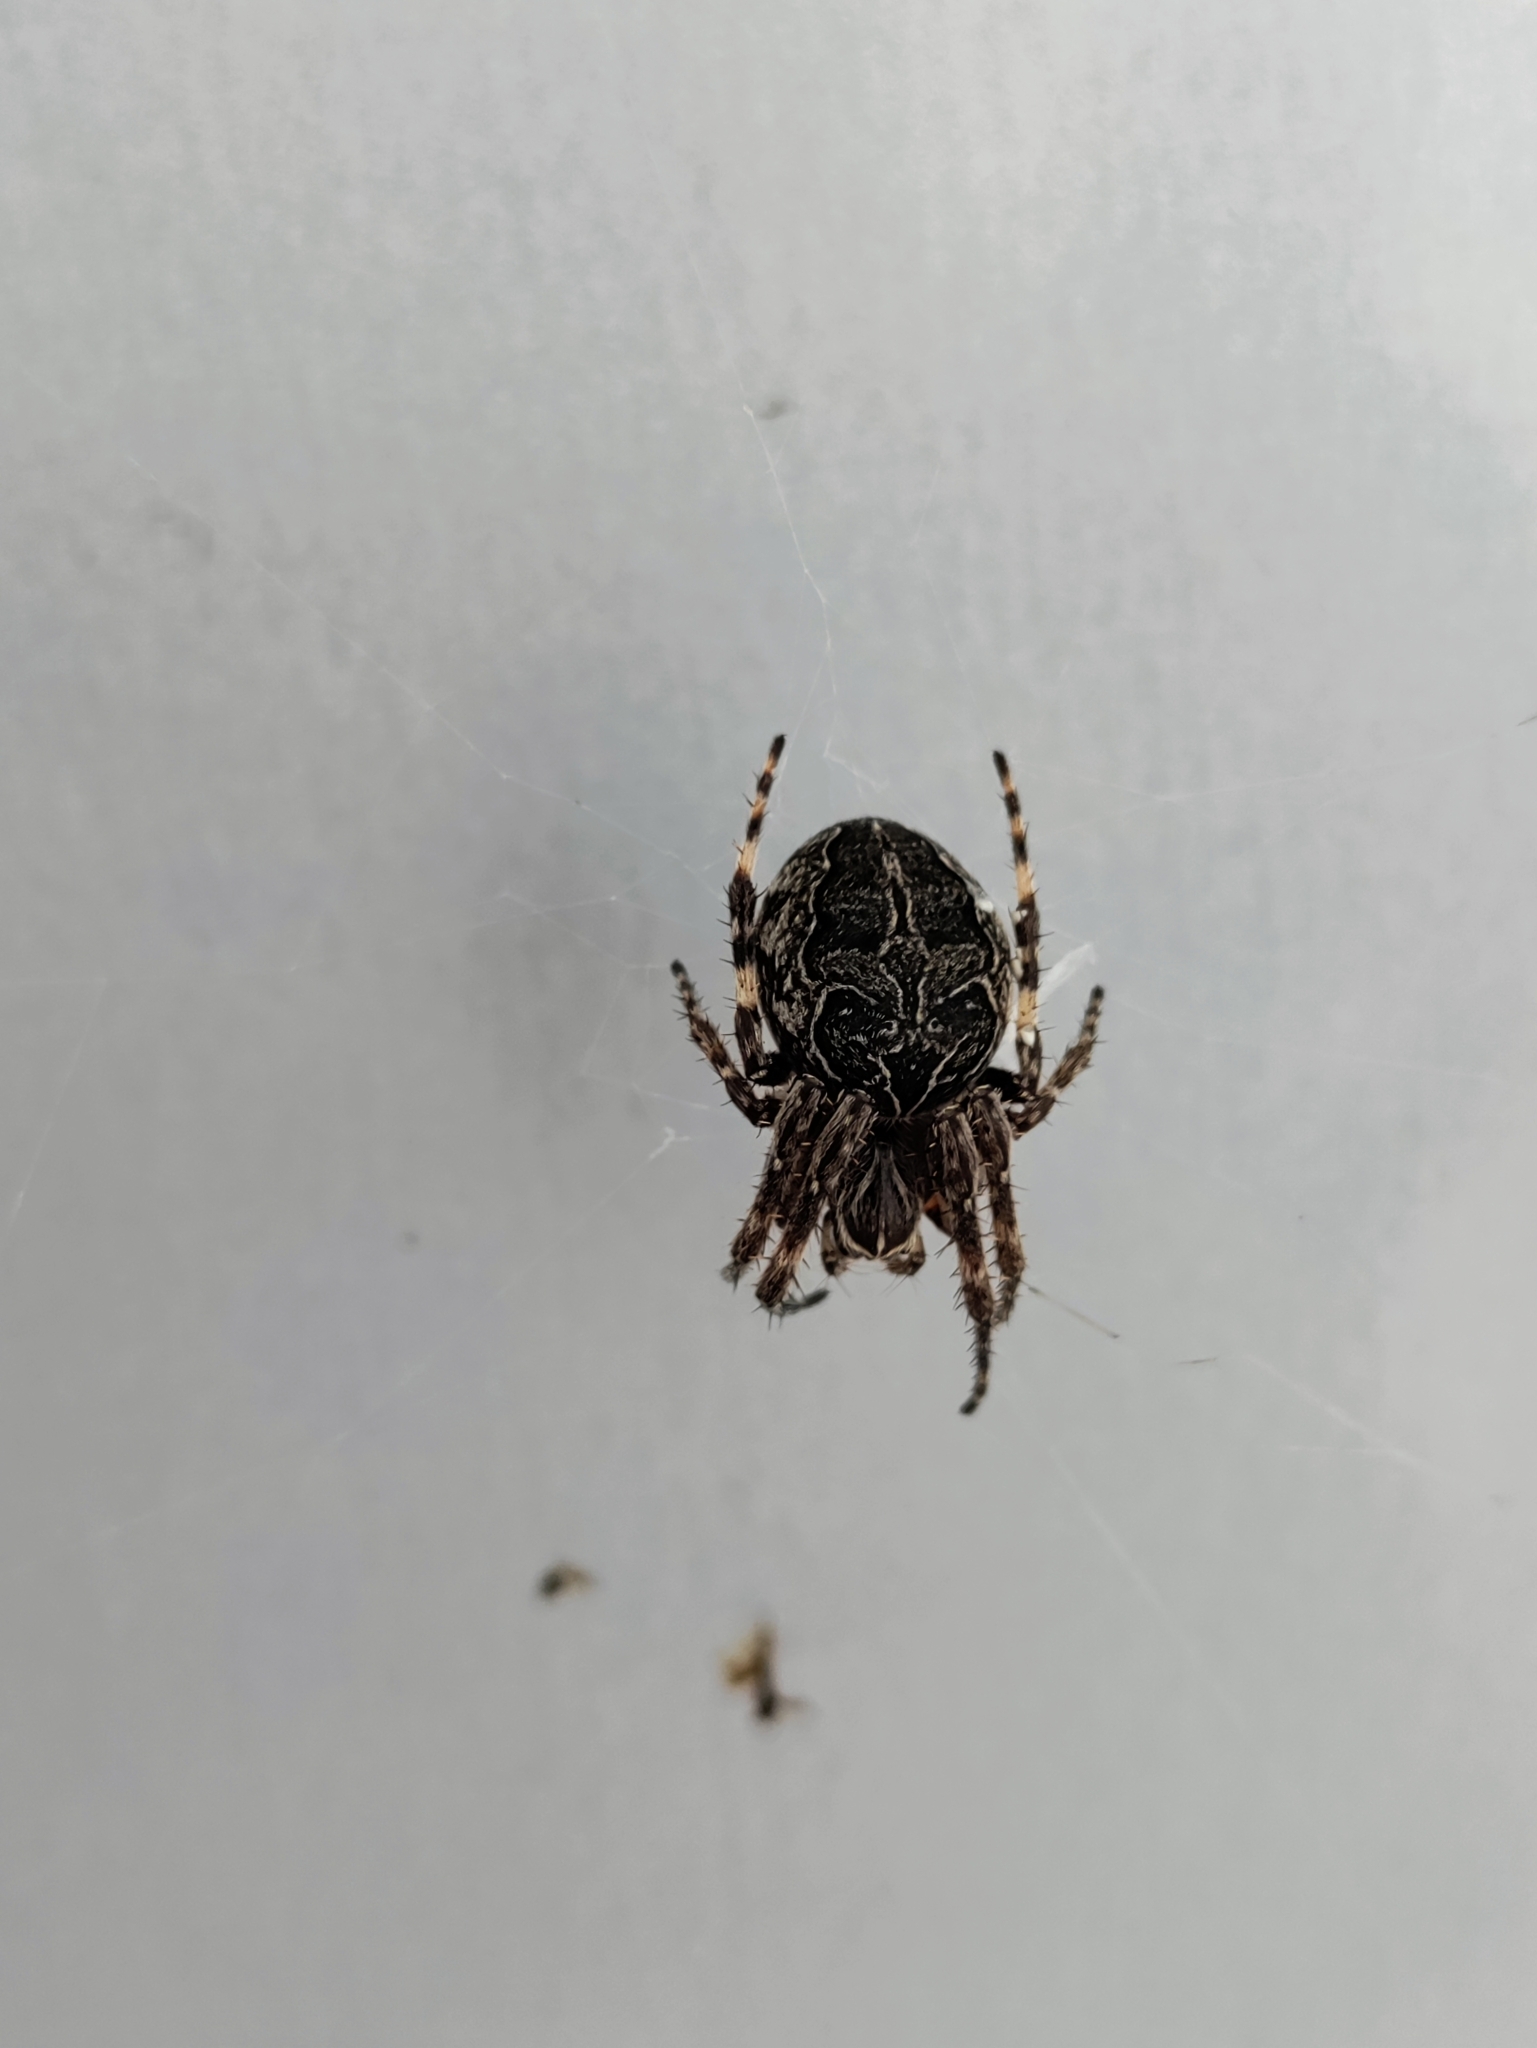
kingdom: Animalia
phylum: Arthropoda
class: Arachnida
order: Araneae
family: Araneidae
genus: Larinioides
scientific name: Larinioides sclopetarius
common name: Bridge orbweaver
